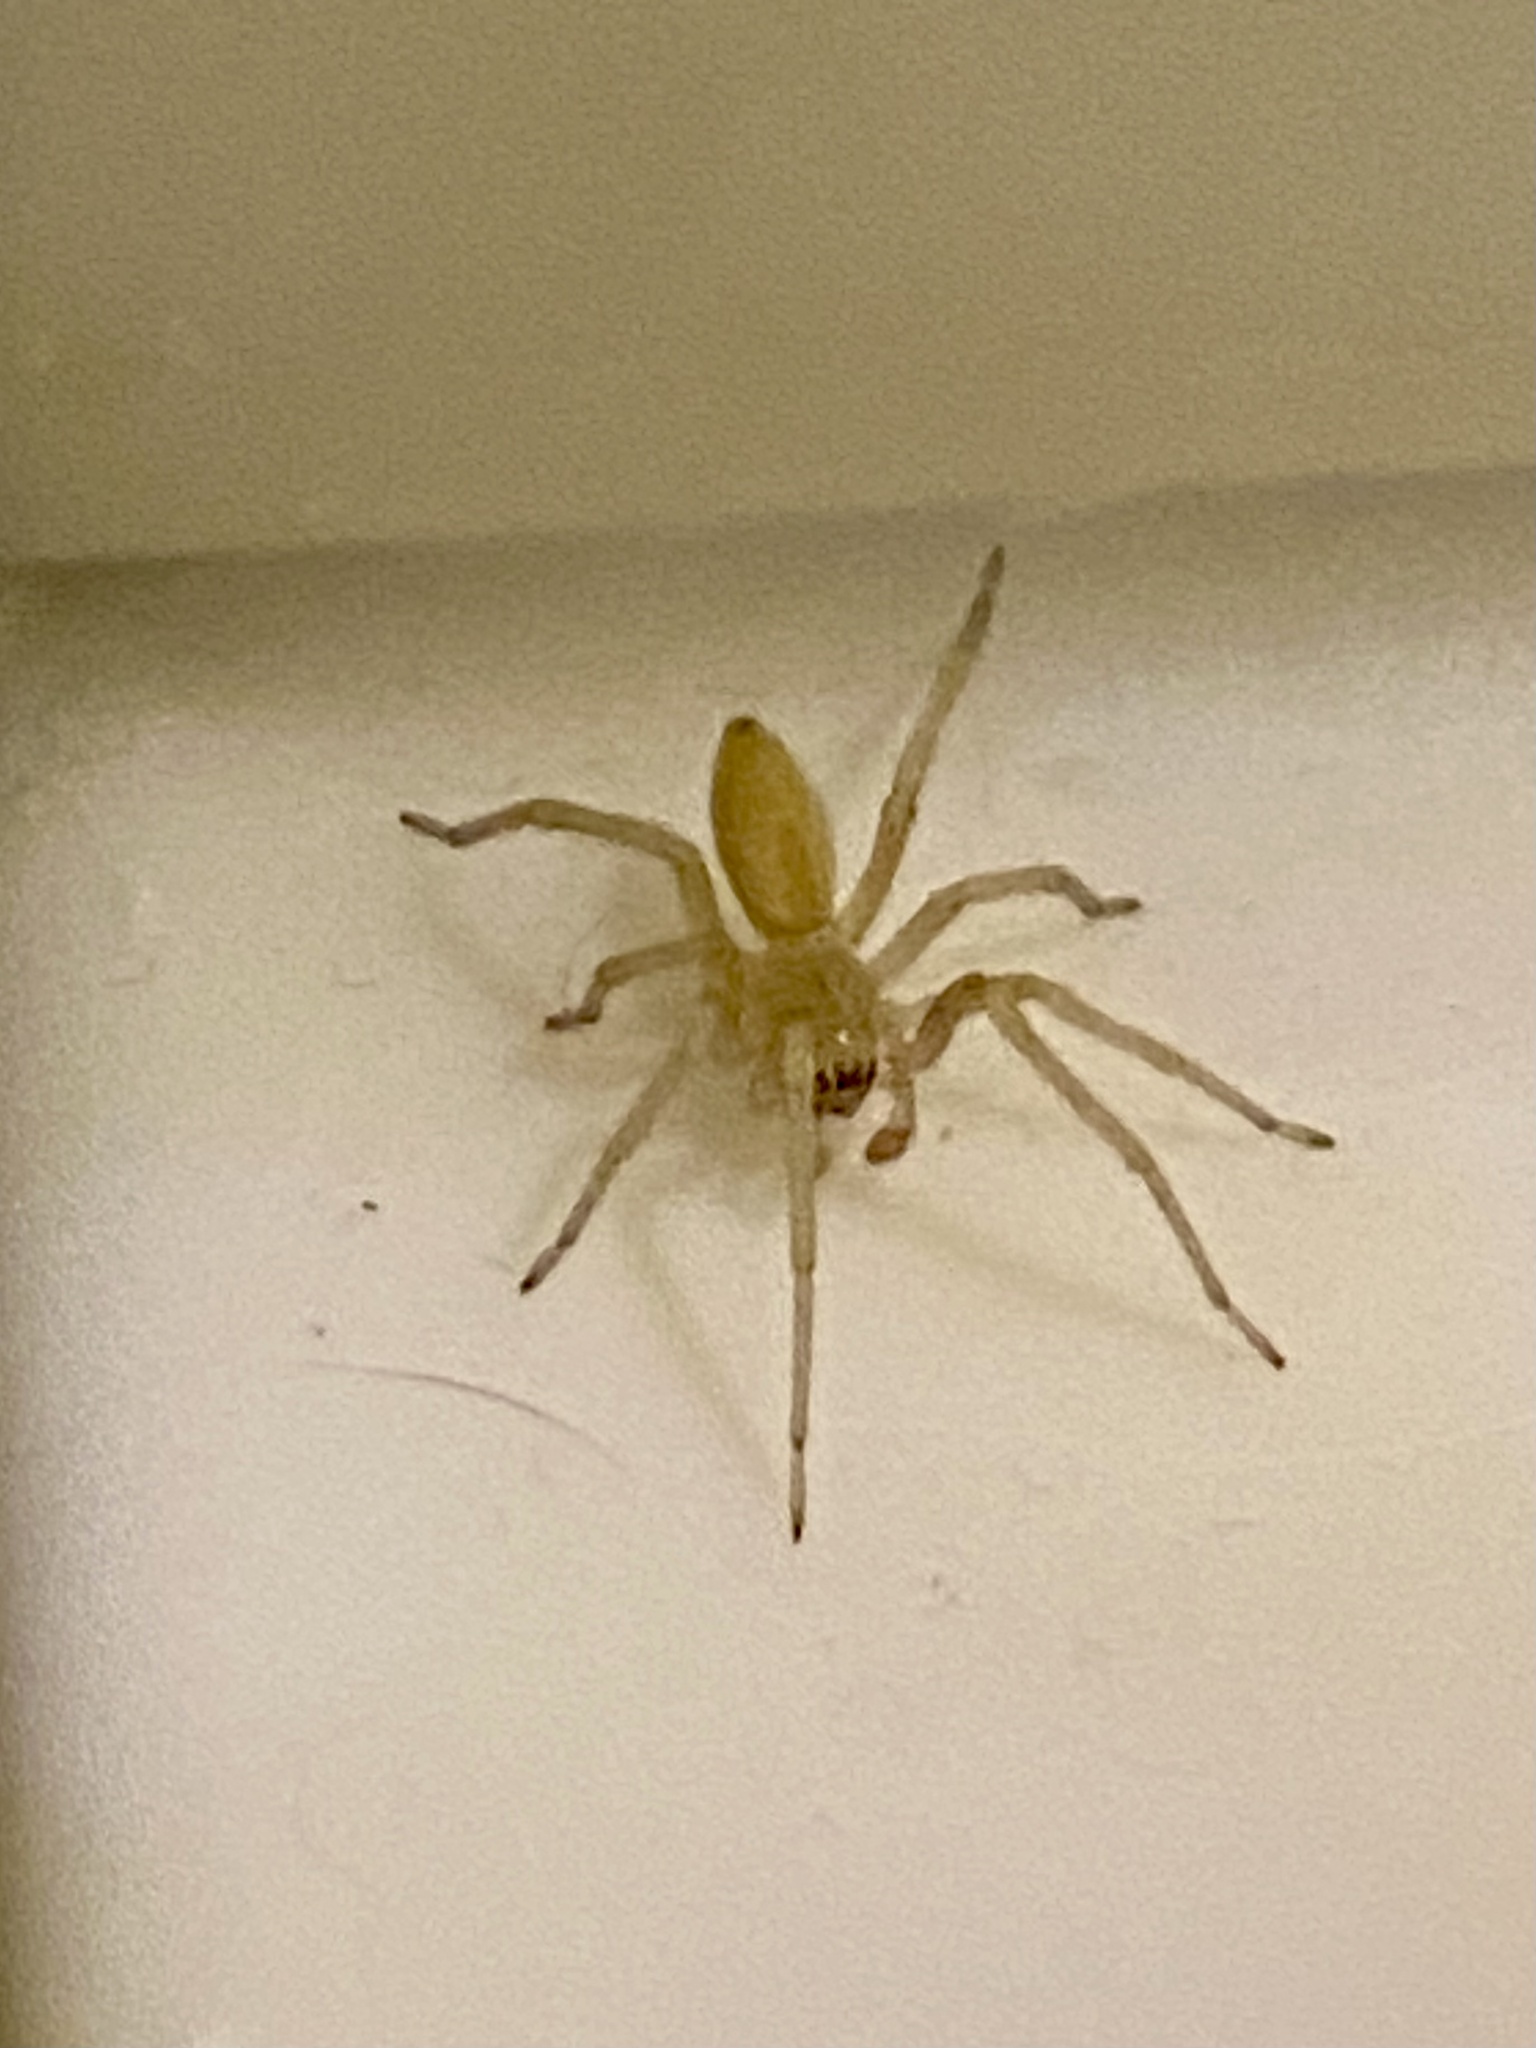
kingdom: Animalia
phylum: Arthropoda
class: Arachnida
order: Araneae
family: Cheiracanthiidae
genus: Cheiracanthium
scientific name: Cheiracanthium
